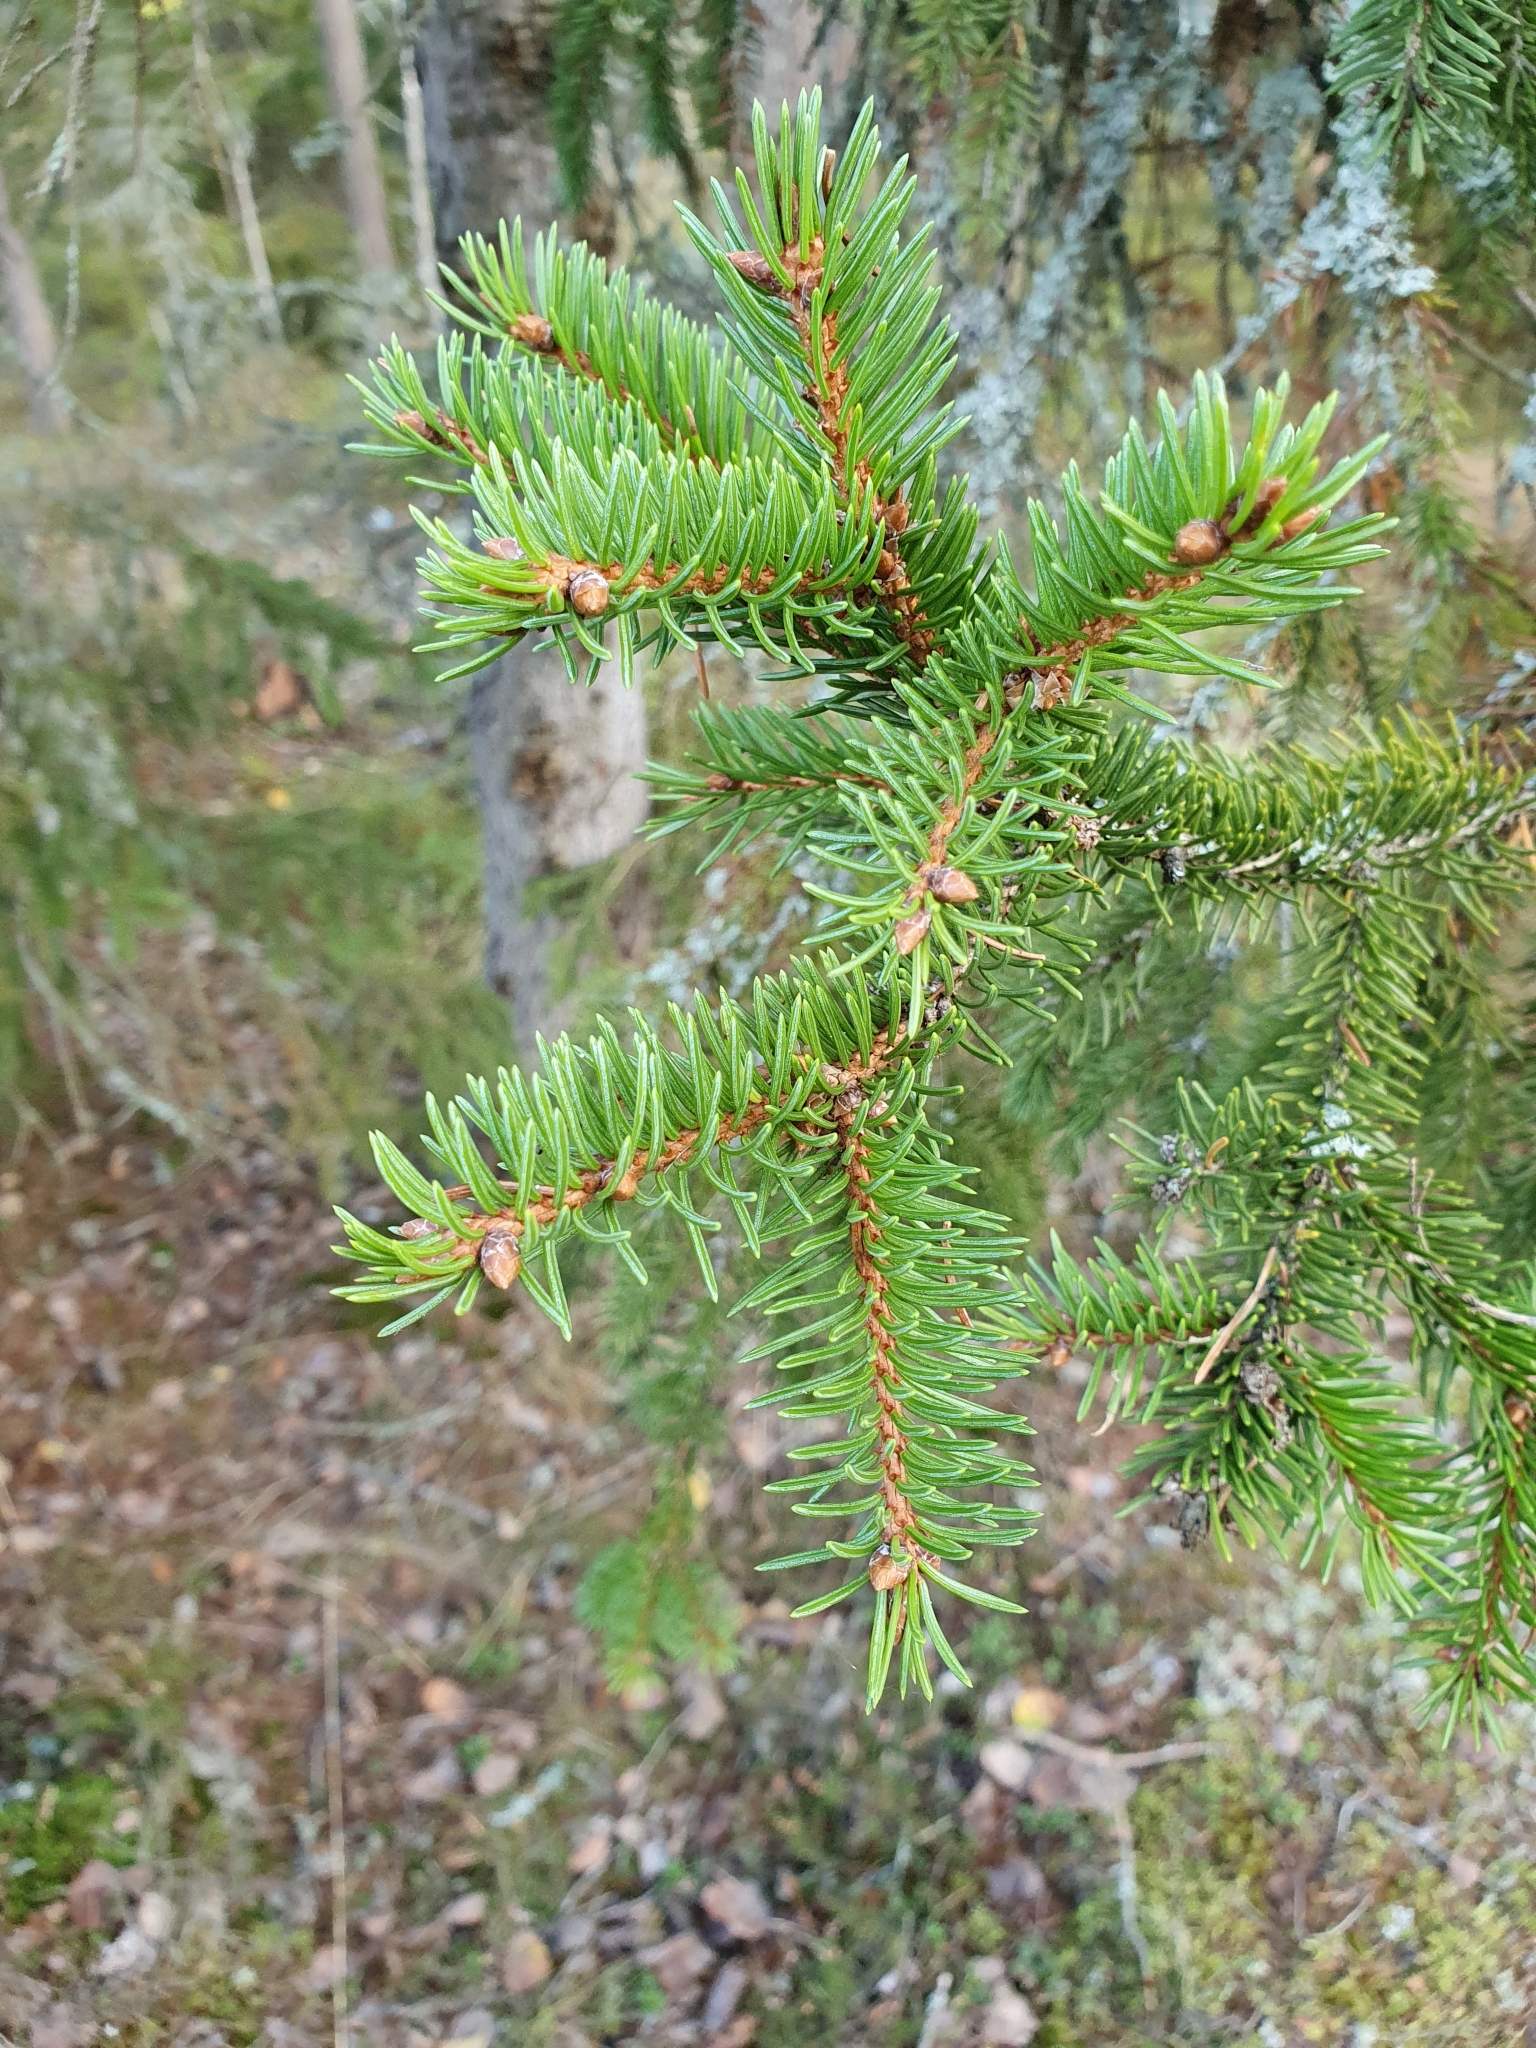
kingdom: Plantae
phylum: Tracheophyta
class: Pinopsida
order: Pinales
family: Pinaceae
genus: Picea
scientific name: Picea abies
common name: Norway spruce
